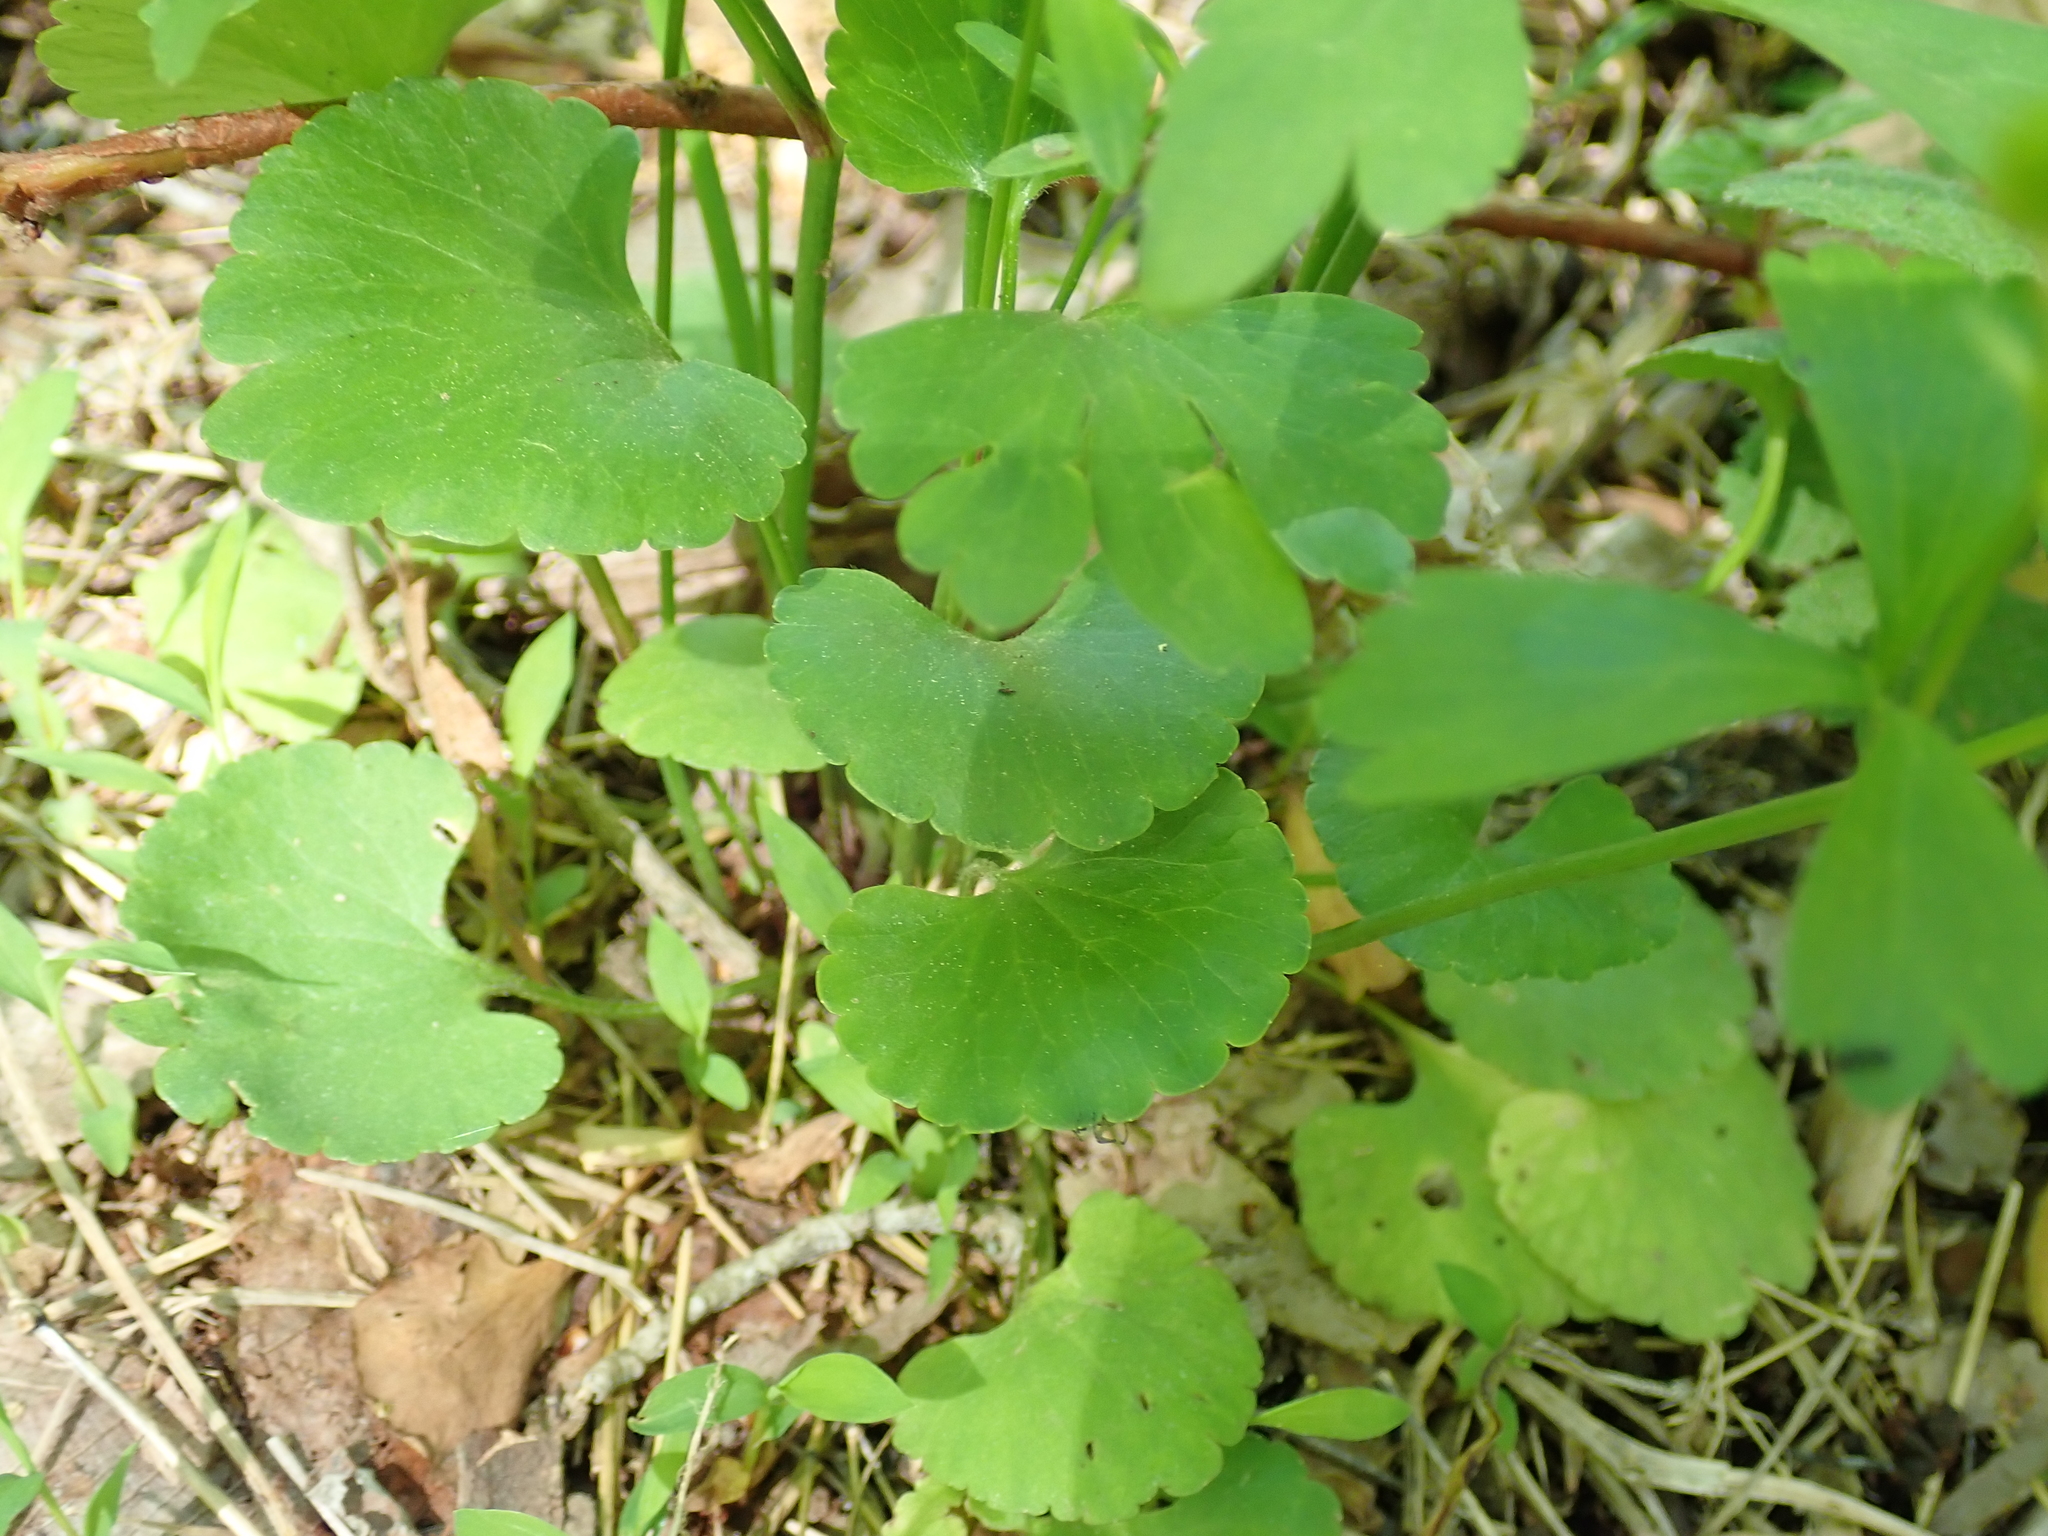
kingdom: Plantae
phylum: Tracheophyta
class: Magnoliopsida
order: Ranunculales
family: Ranunculaceae
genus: Ranunculus
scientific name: Ranunculus abortivus
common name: Early wood buttercup
